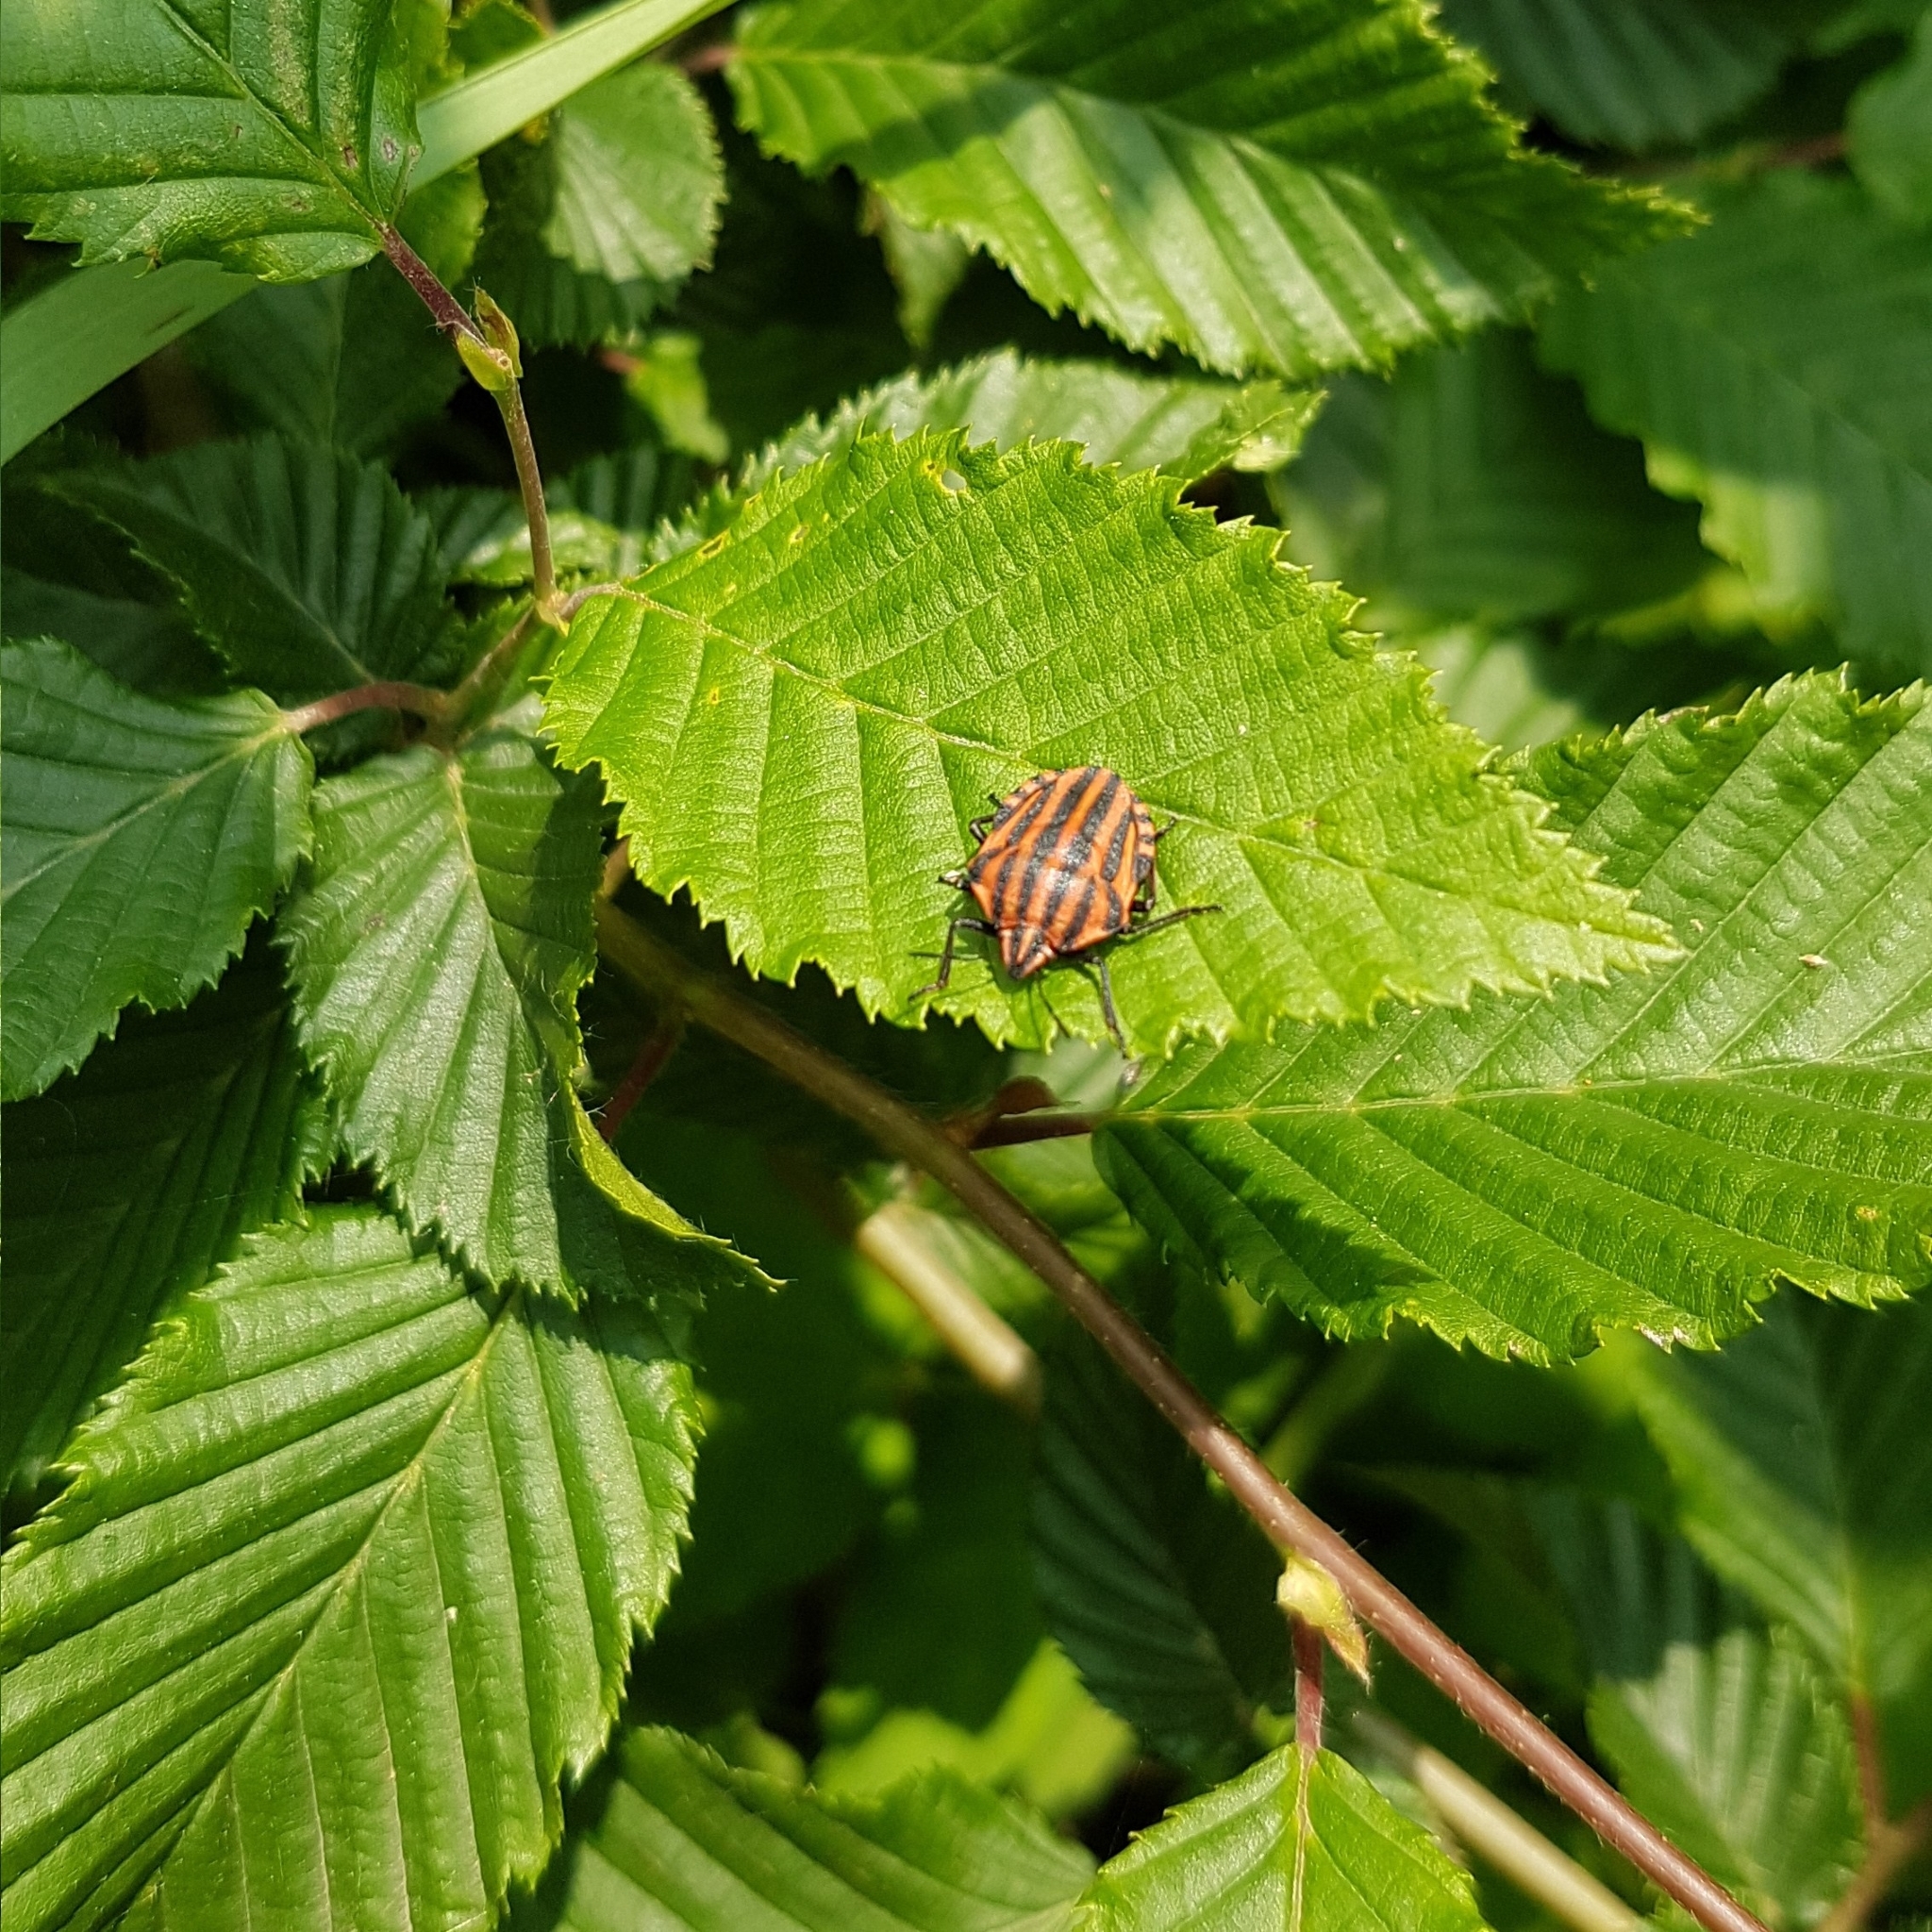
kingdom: Animalia
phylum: Arthropoda
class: Insecta
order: Hemiptera
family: Pentatomidae
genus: Graphosoma
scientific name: Graphosoma italicum
